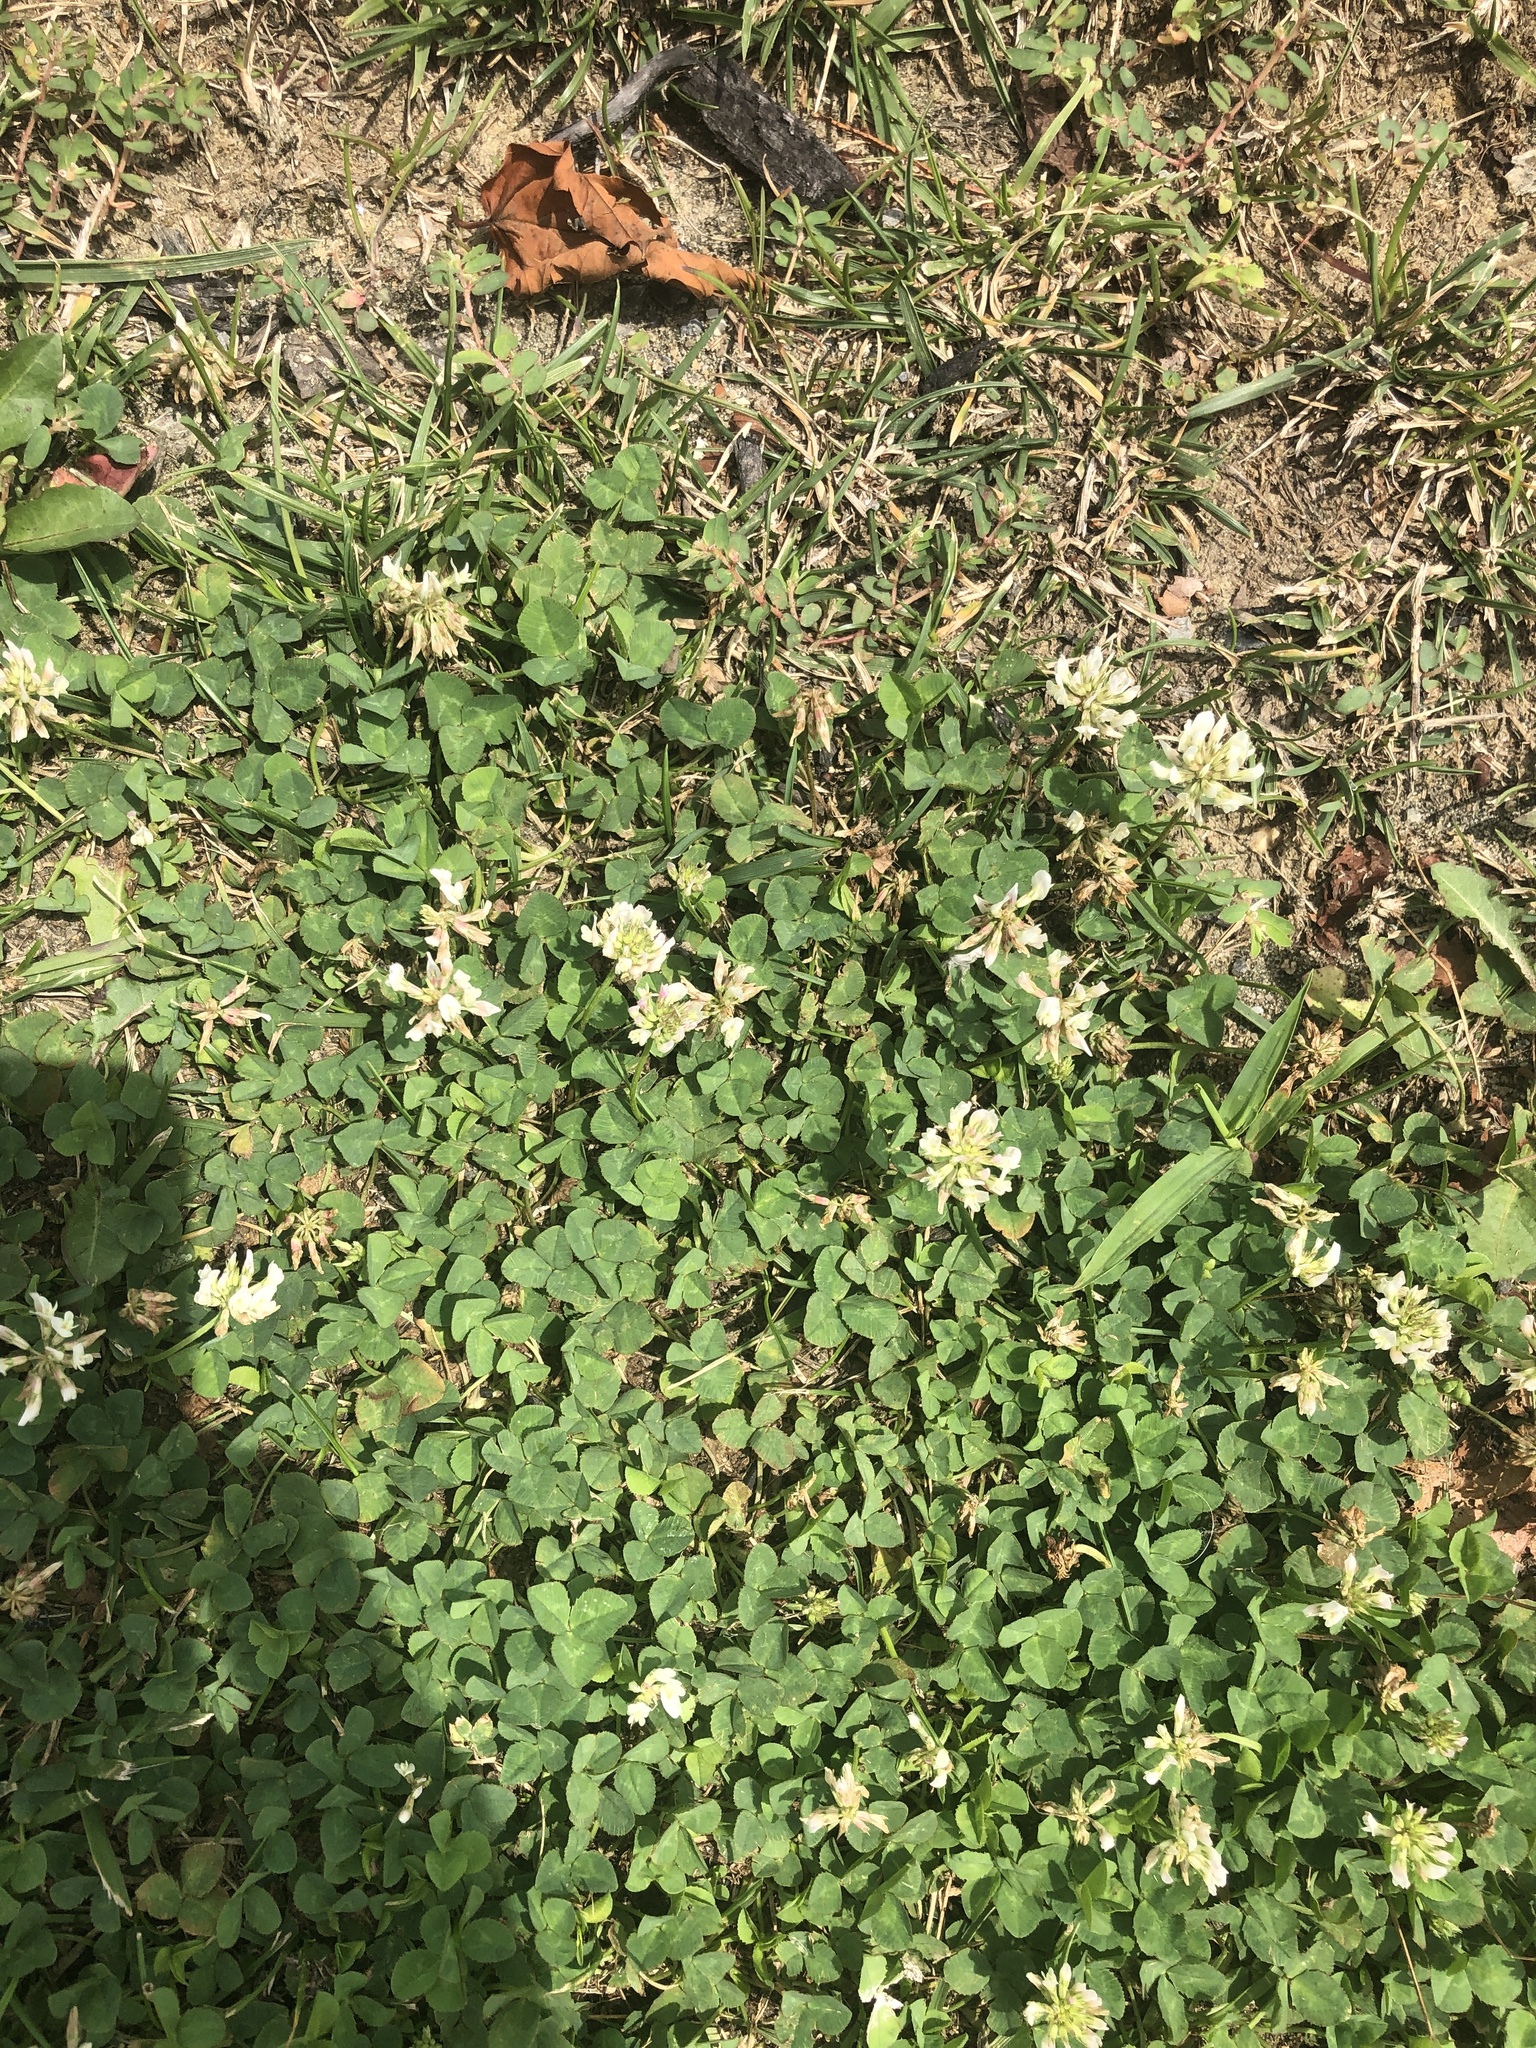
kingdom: Plantae
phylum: Tracheophyta
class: Magnoliopsida
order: Fabales
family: Fabaceae
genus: Trifolium
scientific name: Trifolium repens
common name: White clover
